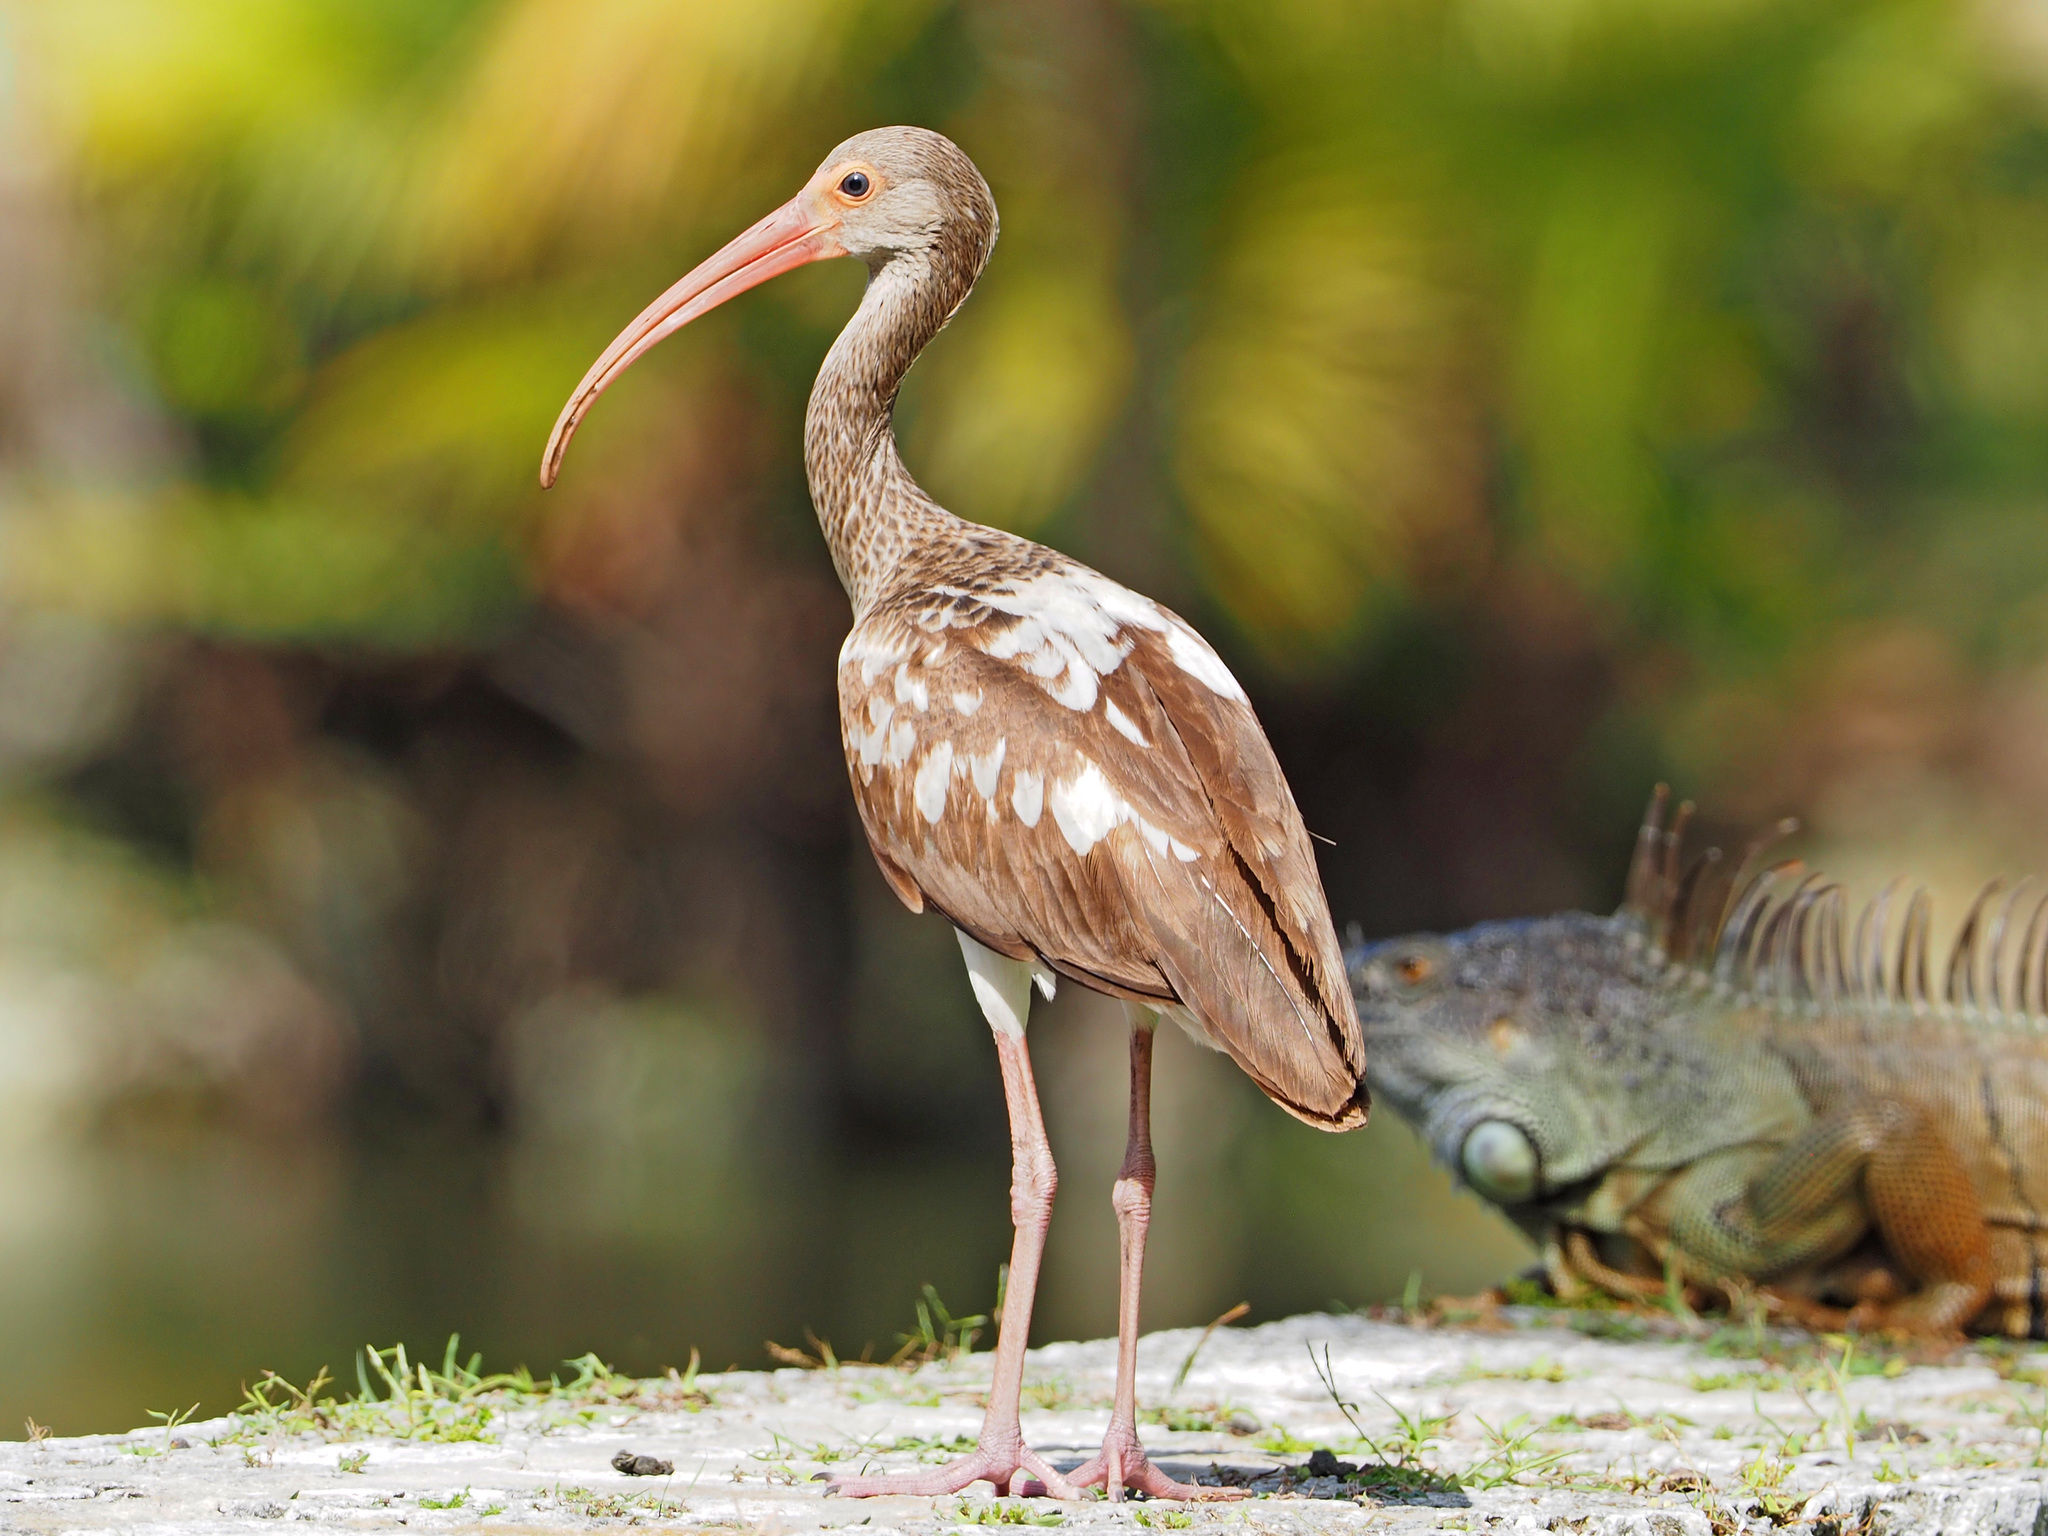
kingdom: Animalia
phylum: Chordata
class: Aves
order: Pelecaniformes
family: Threskiornithidae
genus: Eudocimus
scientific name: Eudocimus albus
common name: White ibis
